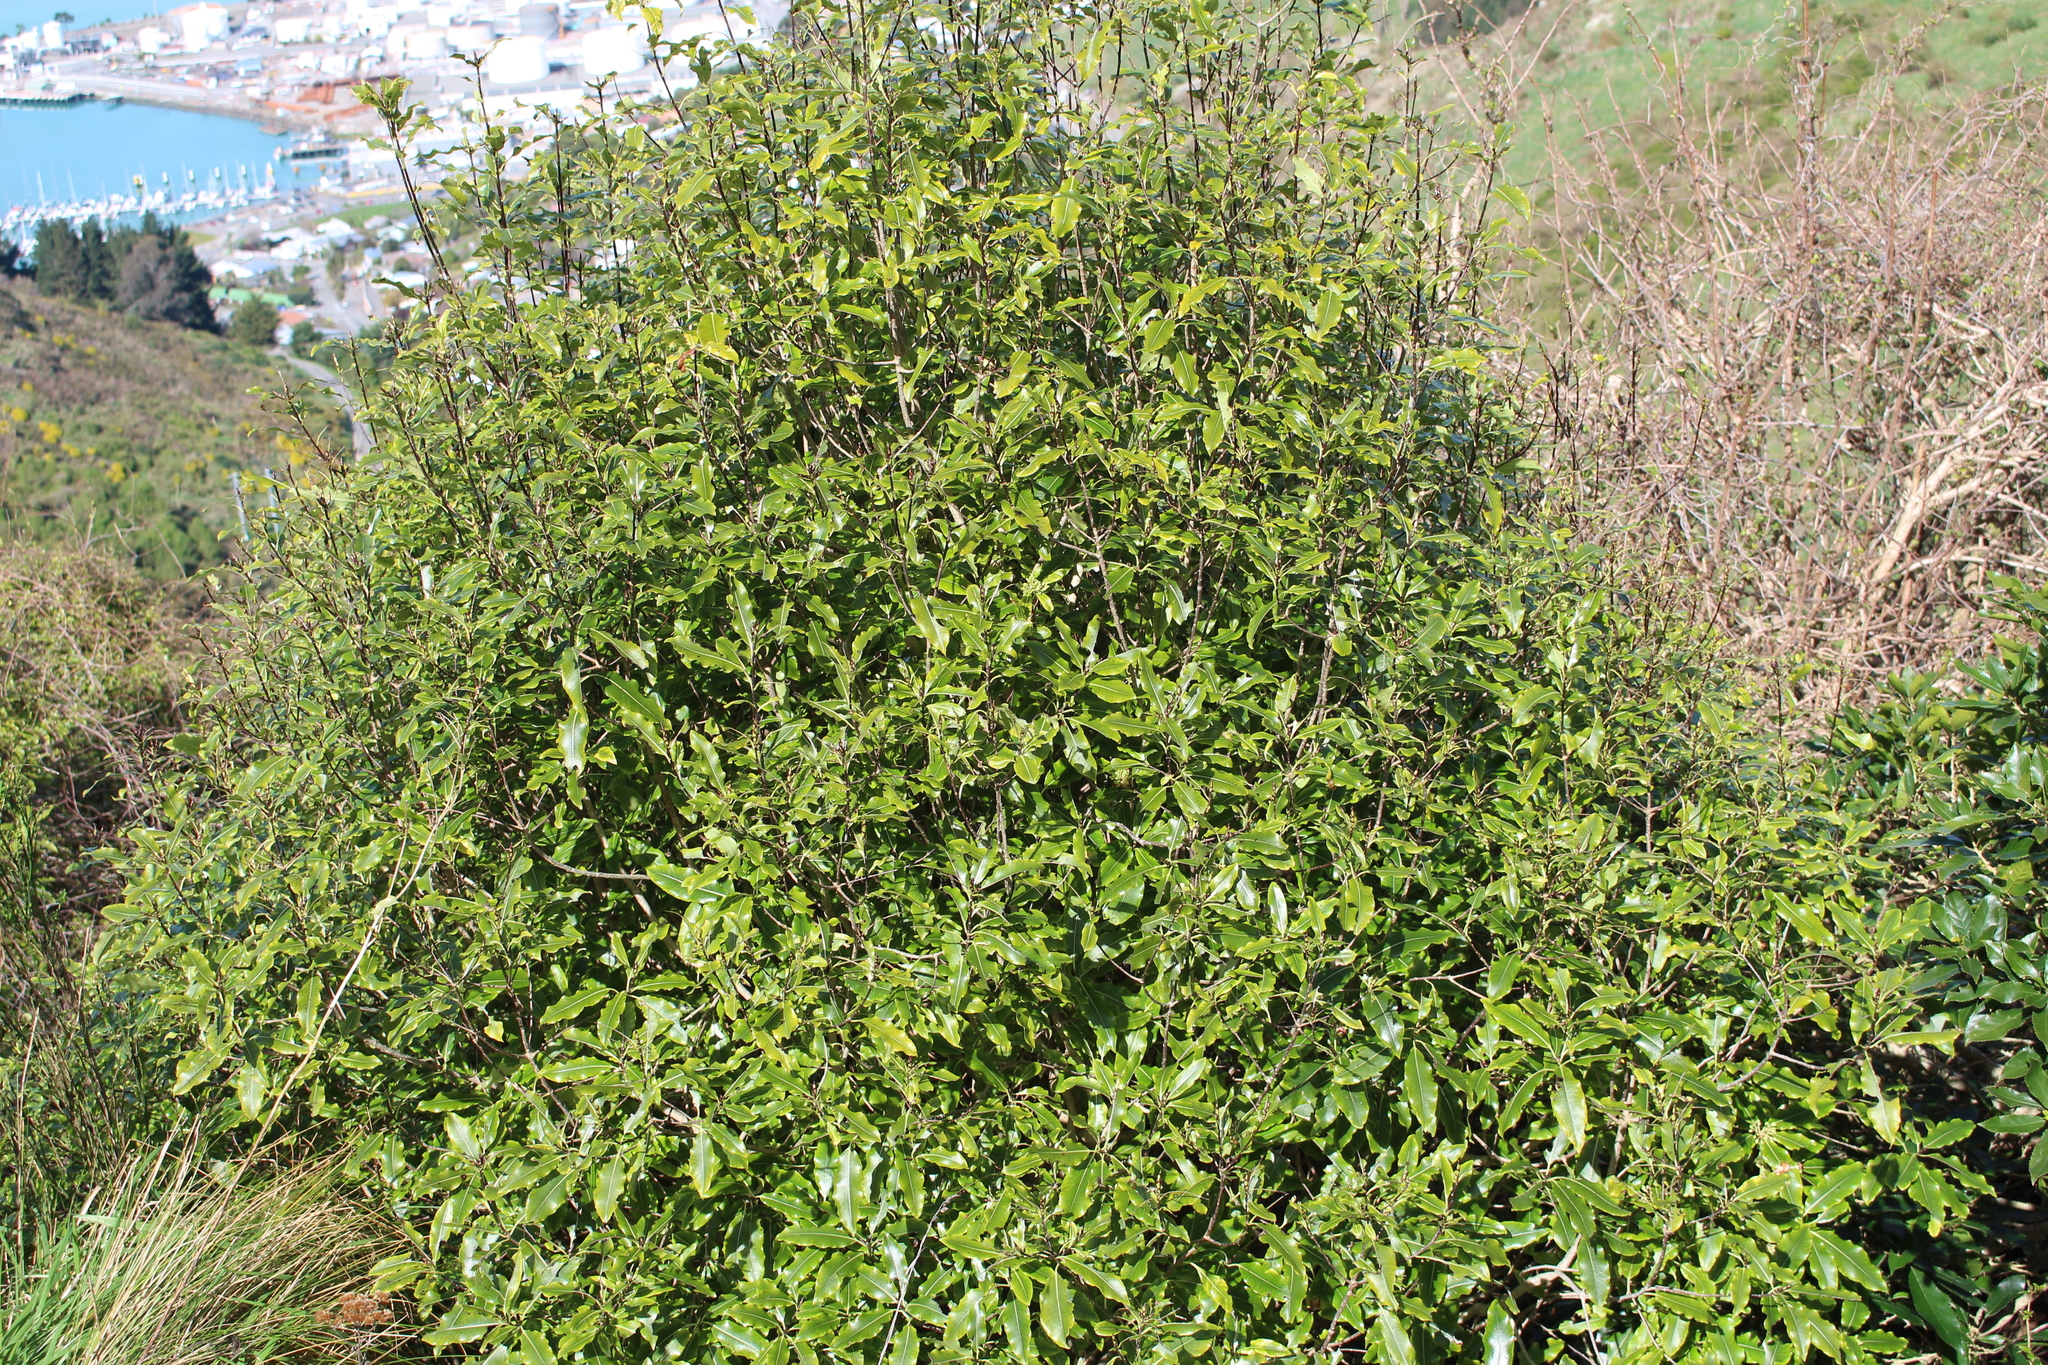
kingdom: Plantae
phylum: Tracheophyta
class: Magnoliopsida
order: Apiales
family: Pittosporaceae
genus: Pittosporum
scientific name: Pittosporum eugenioides
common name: Lemonwood
